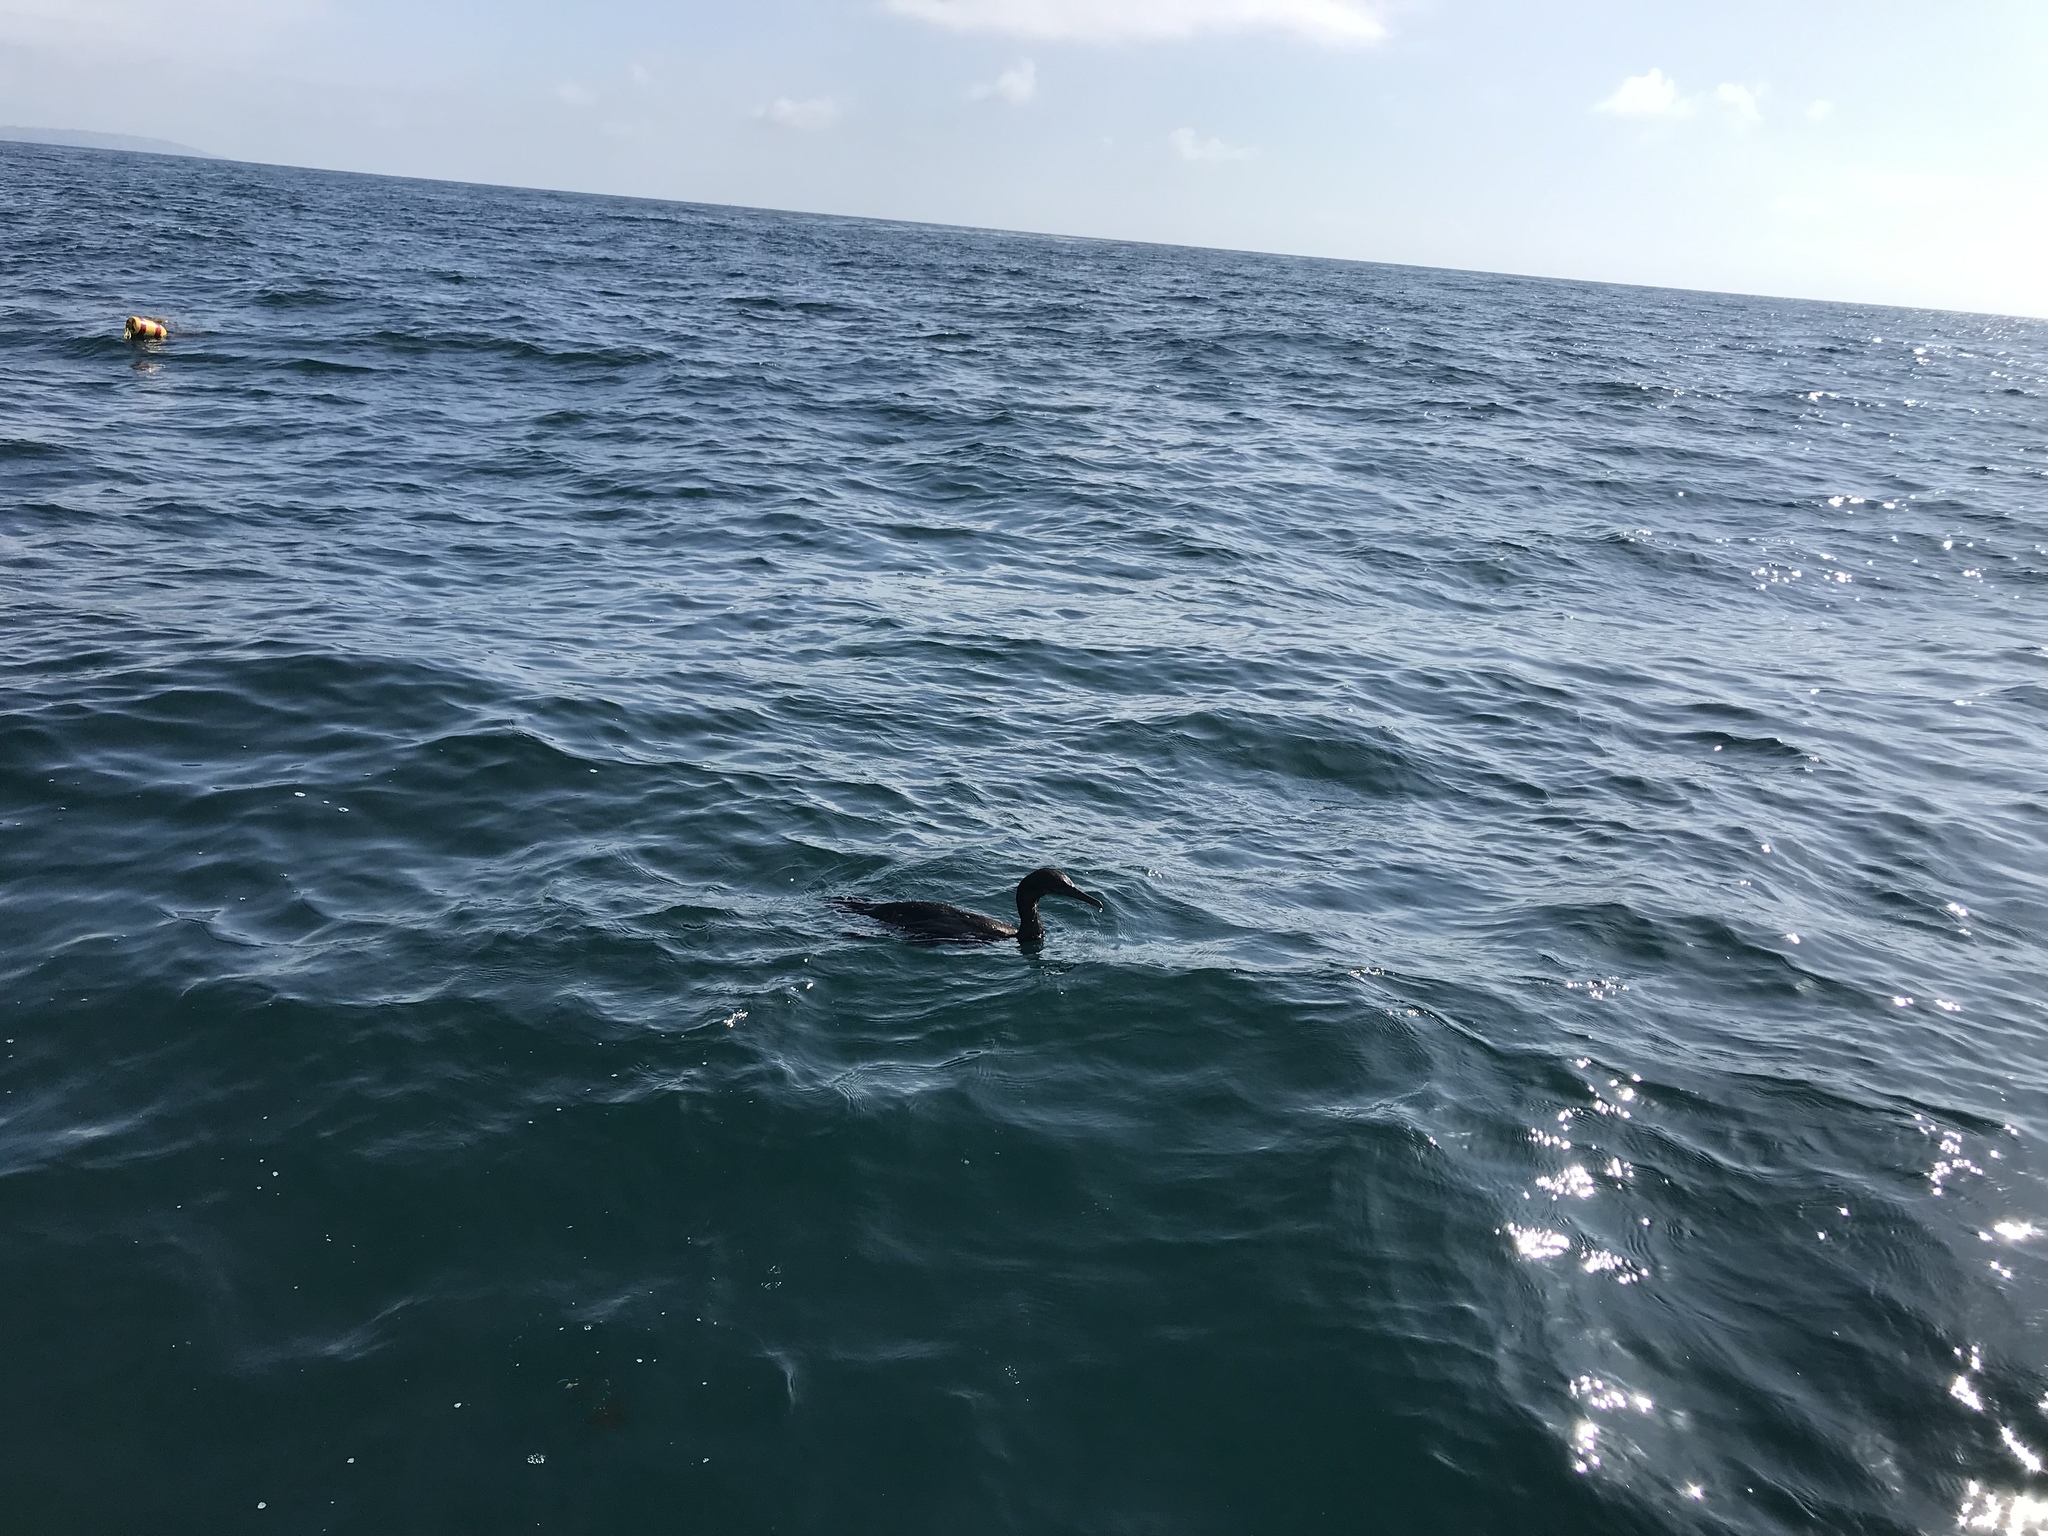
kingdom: Animalia
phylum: Chordata
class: Aves
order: Suliformes
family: Phalacrocoracidae
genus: Urile
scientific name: Urile penicillatus
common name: Brandt's cormorant
